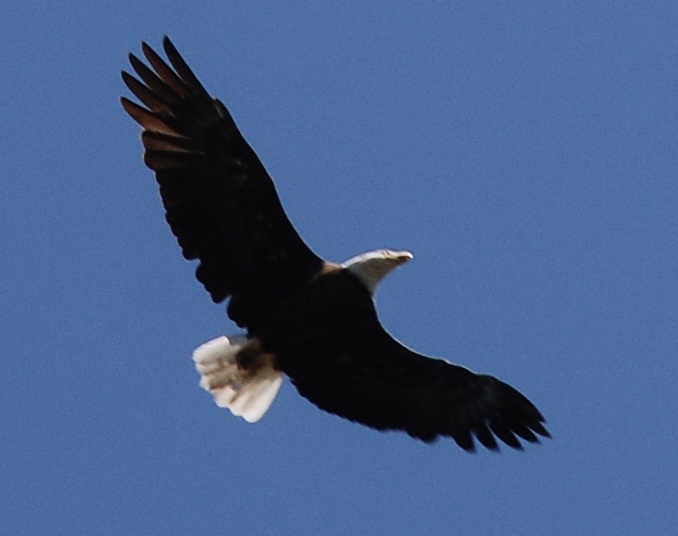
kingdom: Animalia
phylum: Chordata
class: Aves
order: Accipitriformes
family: Accipitridae
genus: Haliaeetus
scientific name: Haliaeetus leucocephalus
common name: Bald eagle
